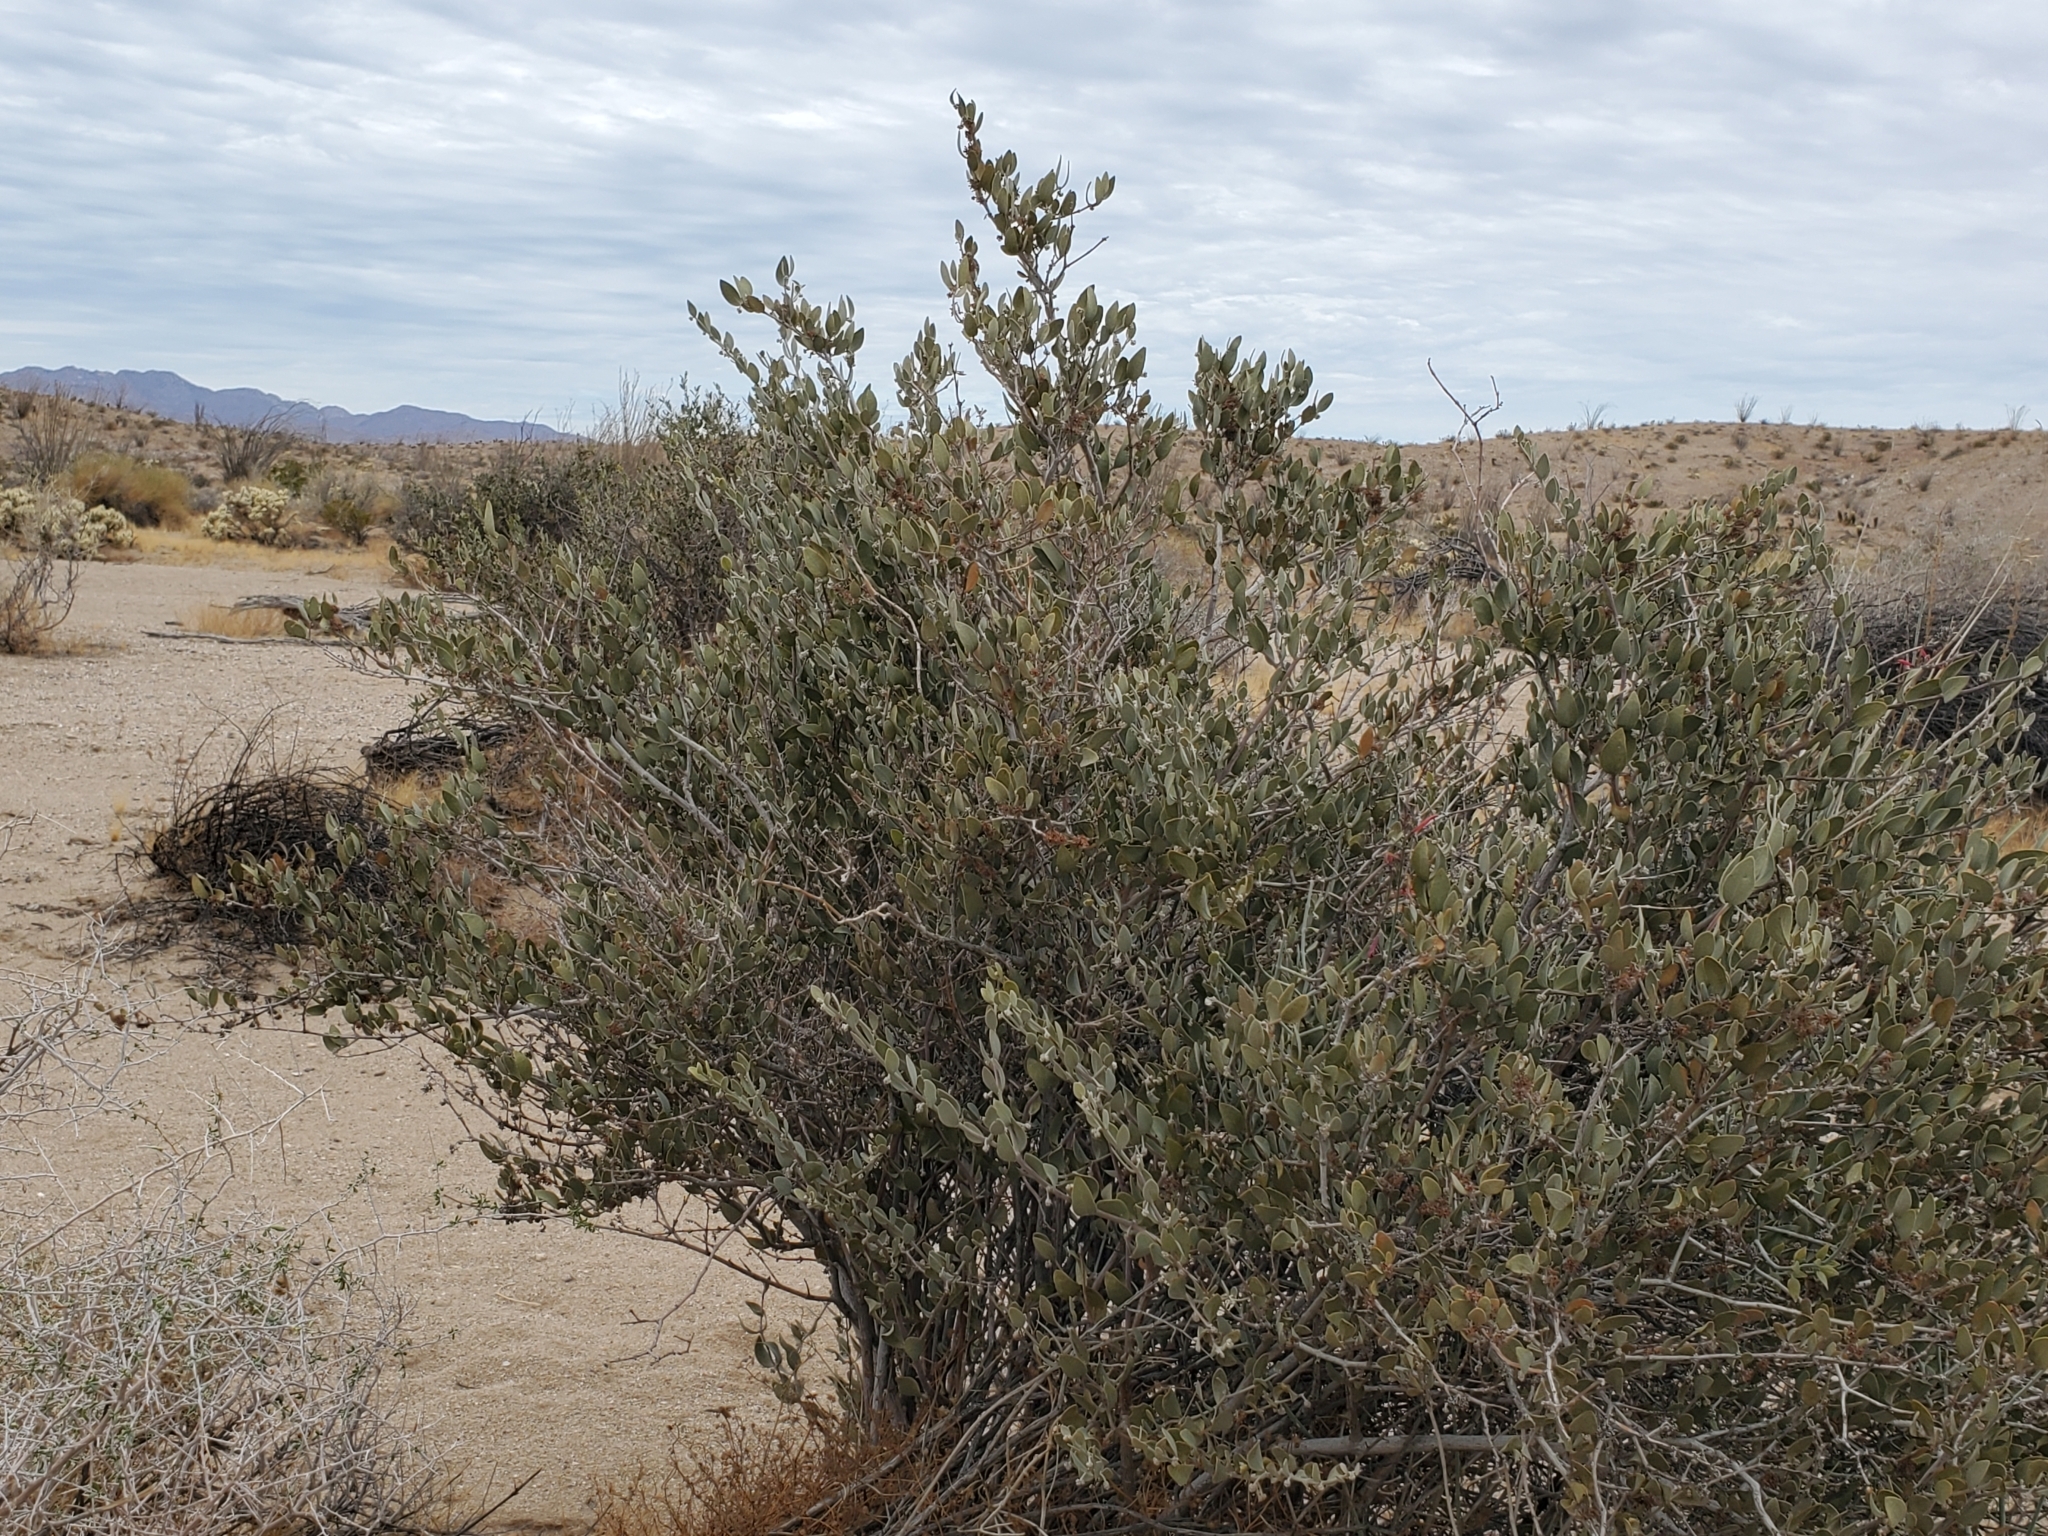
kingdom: Plantae
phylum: Tracheophyta
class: Magnoliopsida
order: Caryophyllales
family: Simmondsiaceae
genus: Simmondsia
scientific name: Simmondsia chinensis
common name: Jojoba
